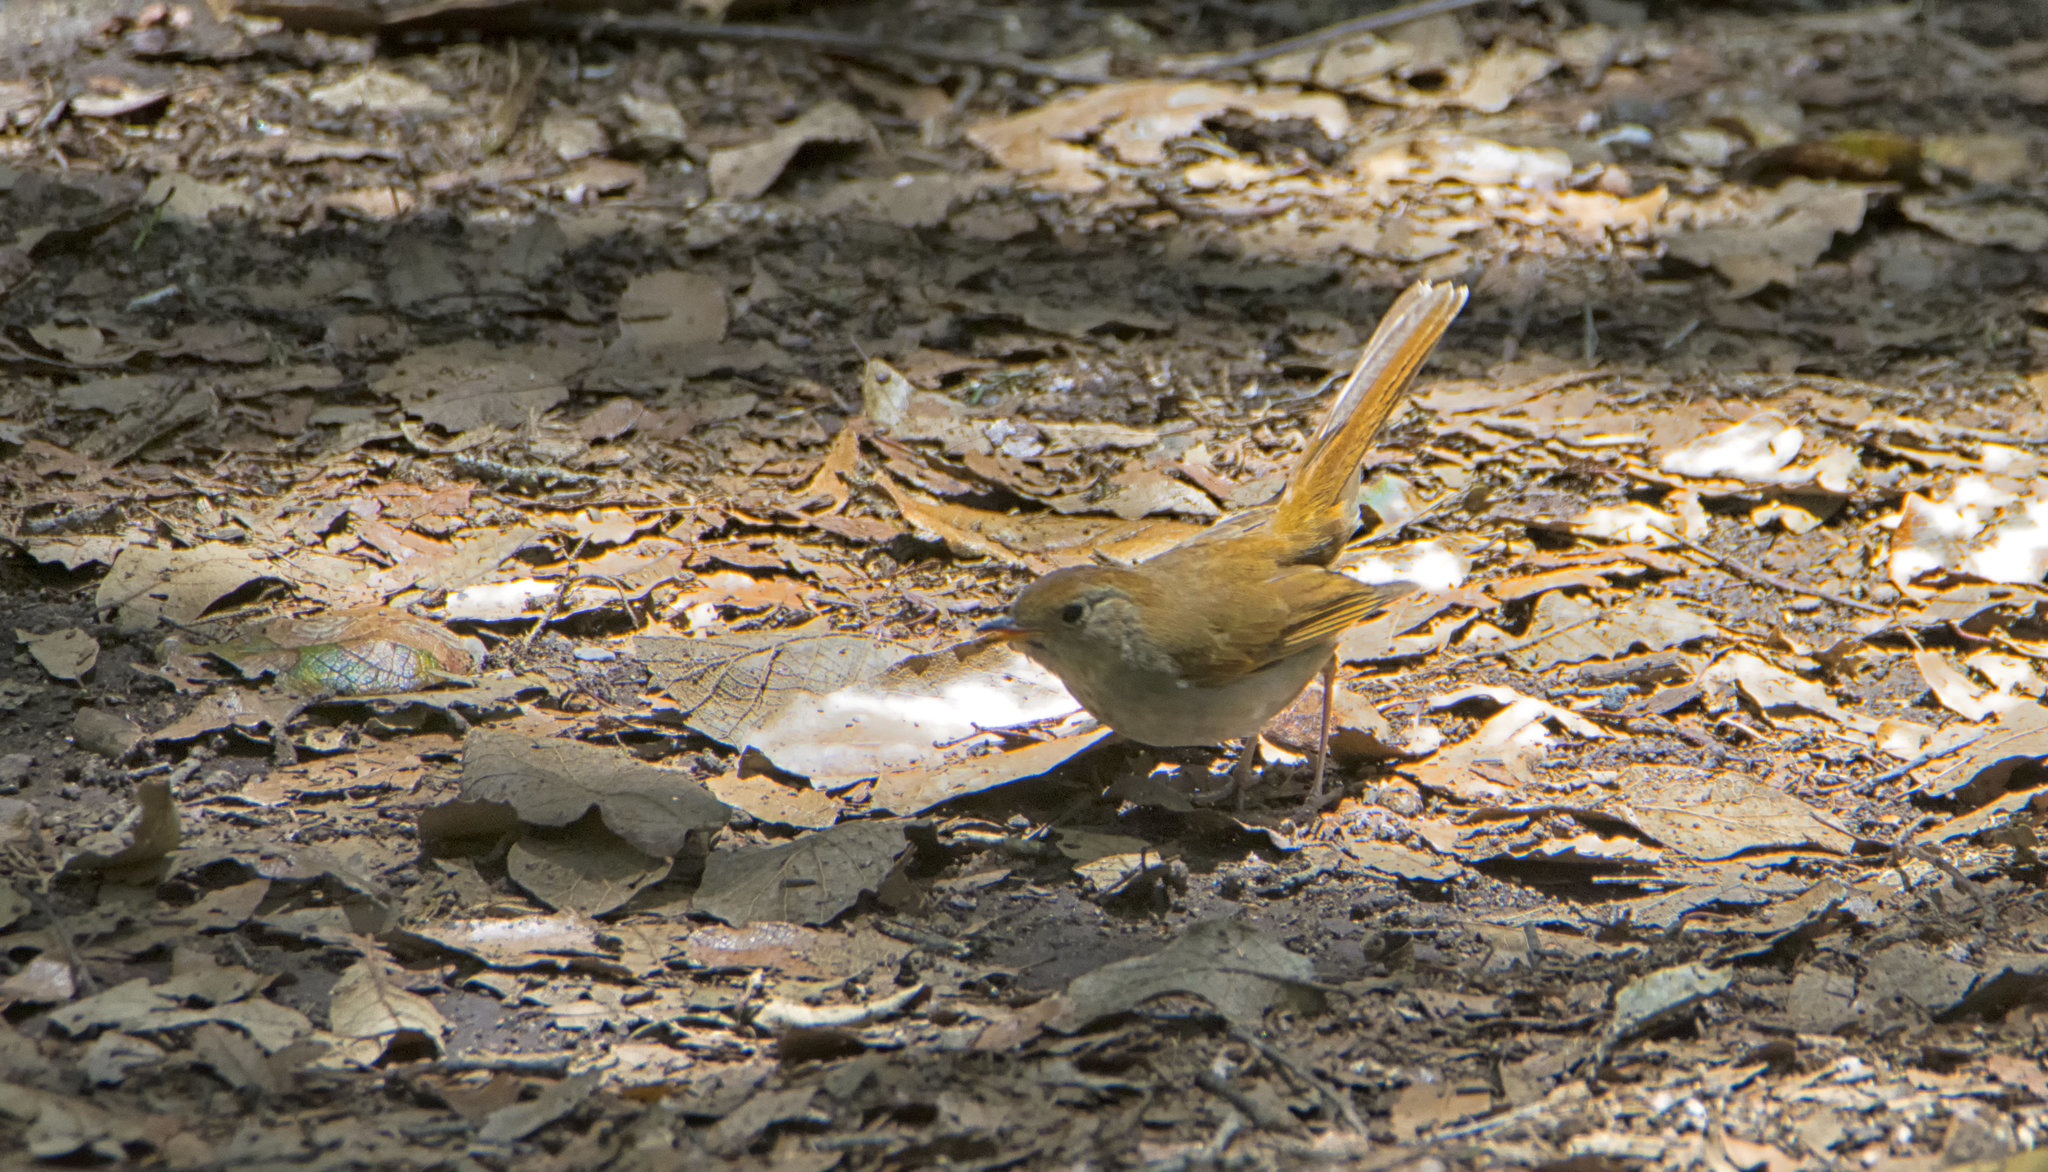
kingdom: Animalia
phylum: Chordata
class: Aves
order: Passeriformes
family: Turdidae
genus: Catharus
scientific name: Catharus frantzii
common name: Ruddy-capped nightingale-thrush
